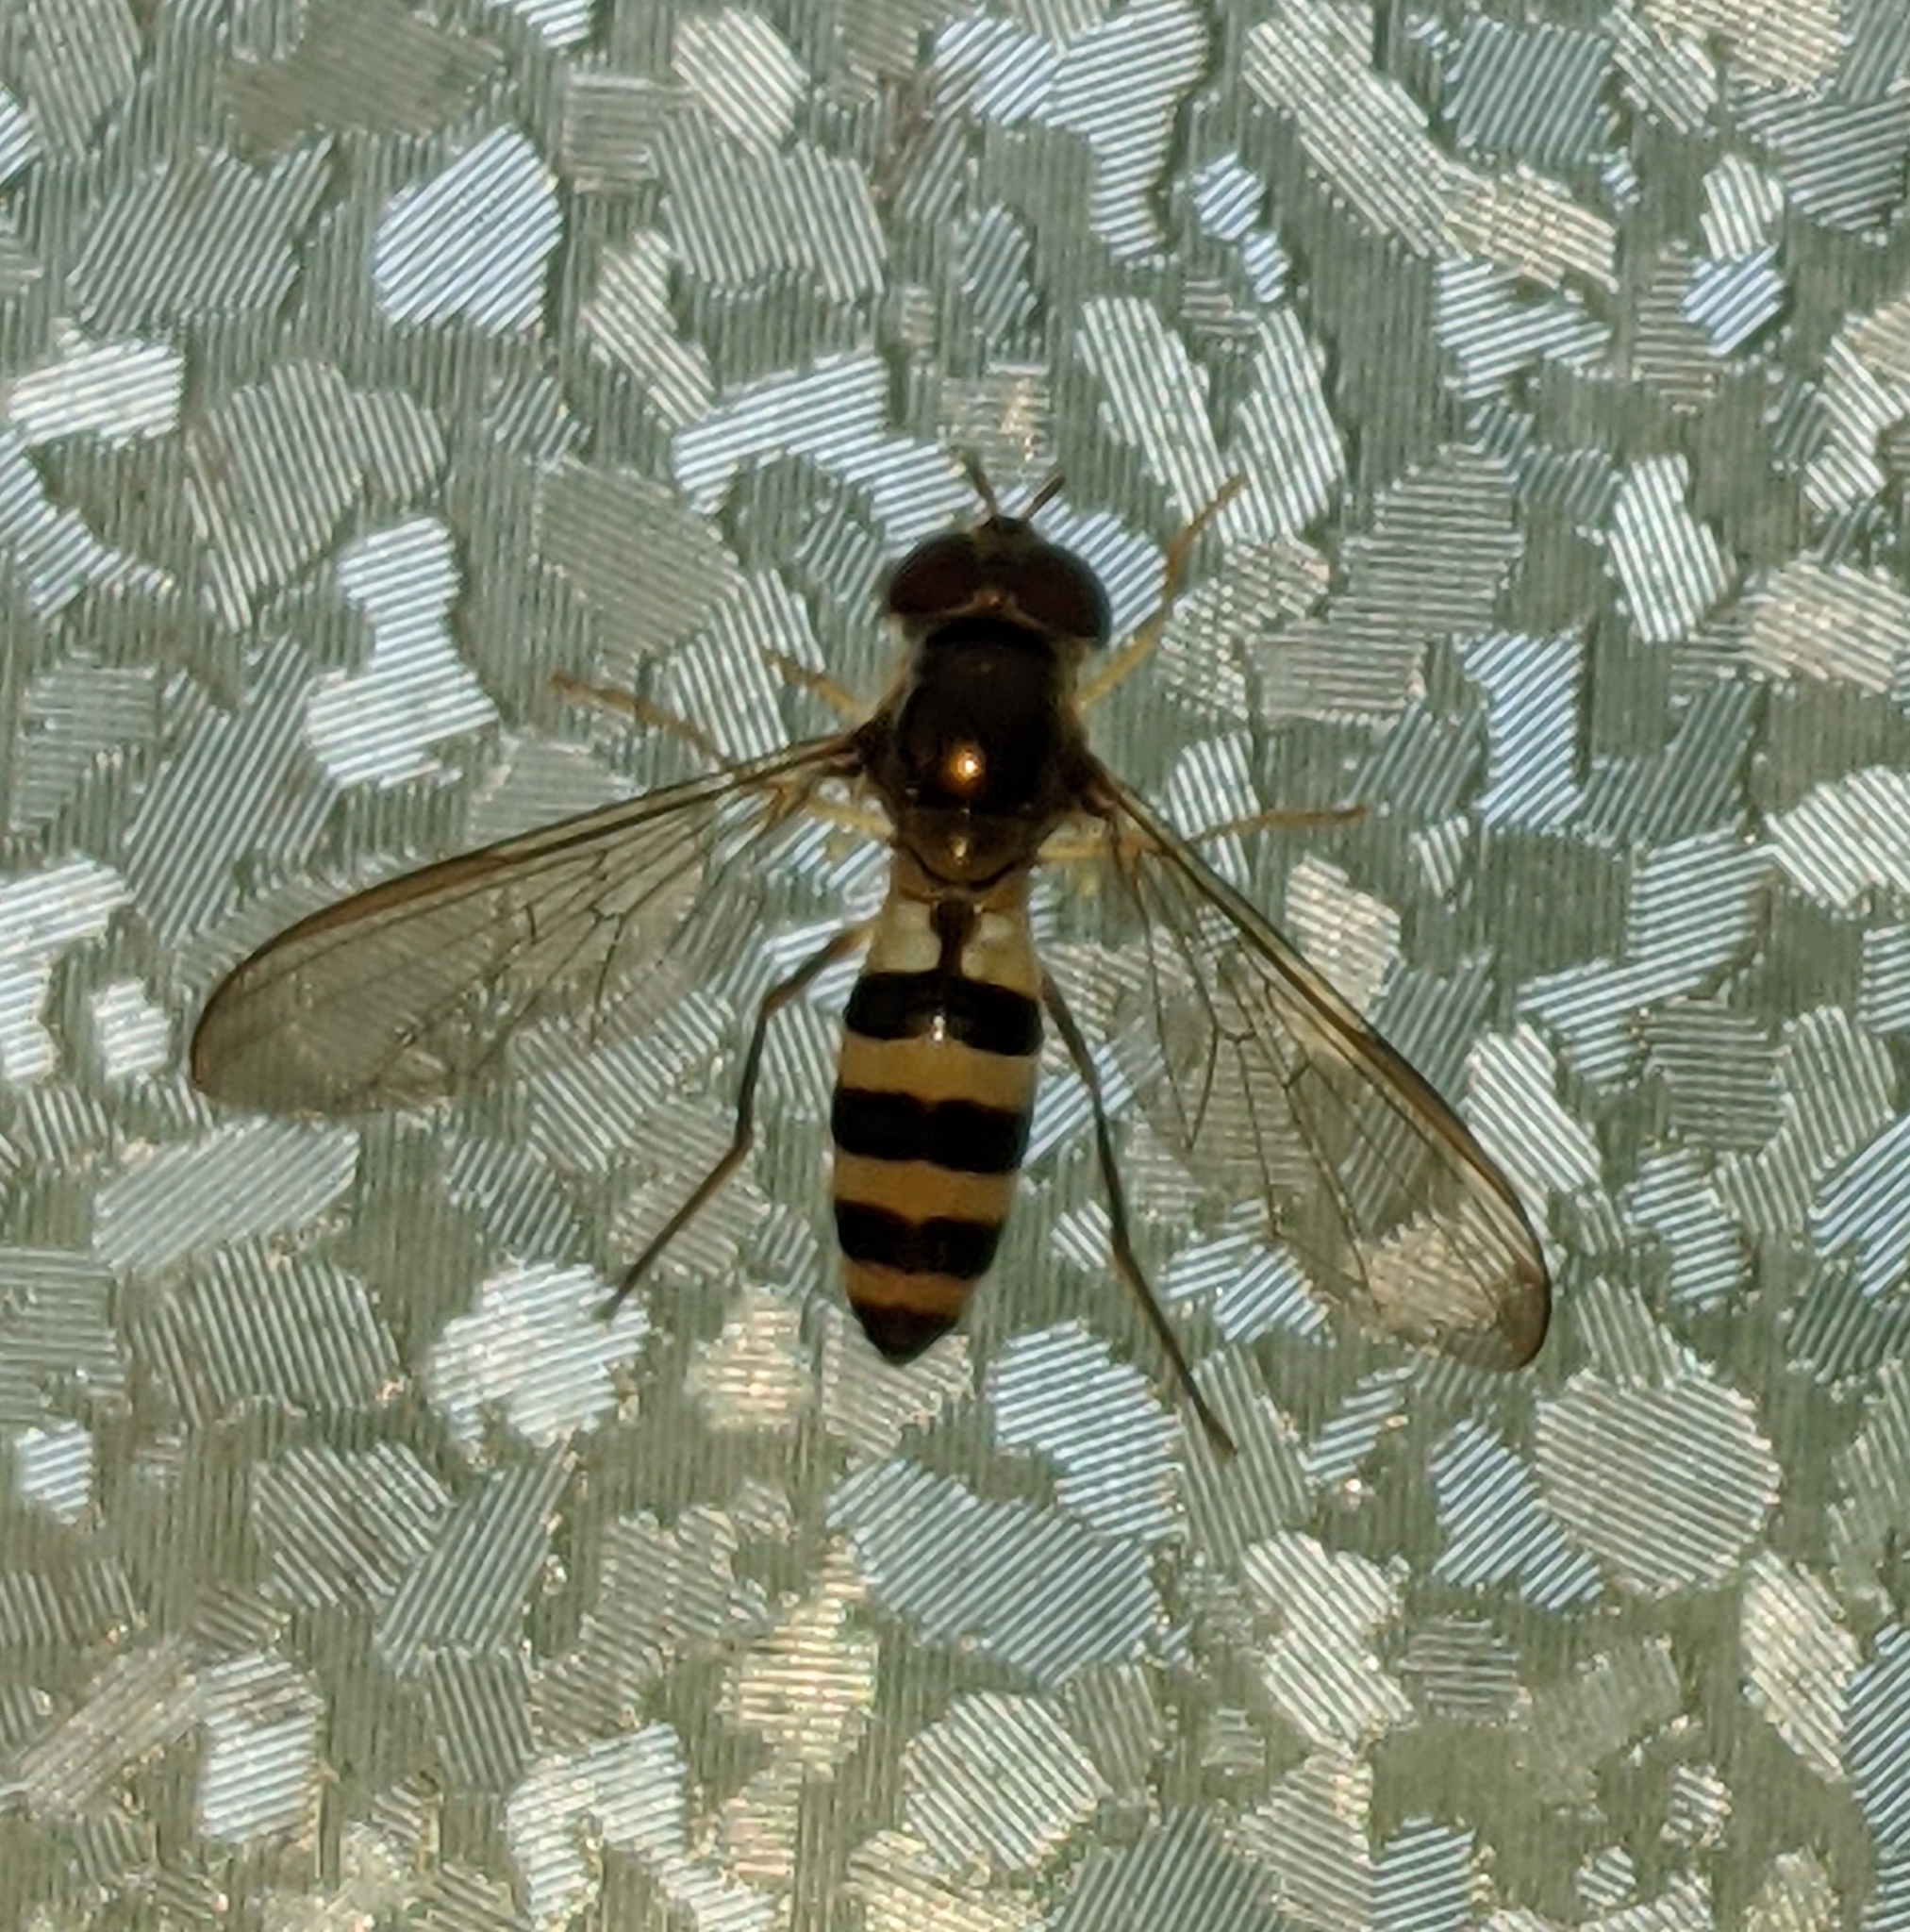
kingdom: Animalia
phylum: Arthropoda
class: Insecta
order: Diptera
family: Syrphidae
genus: Meliscaeva
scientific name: Meliscaeva cinctella
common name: American thintail fly
